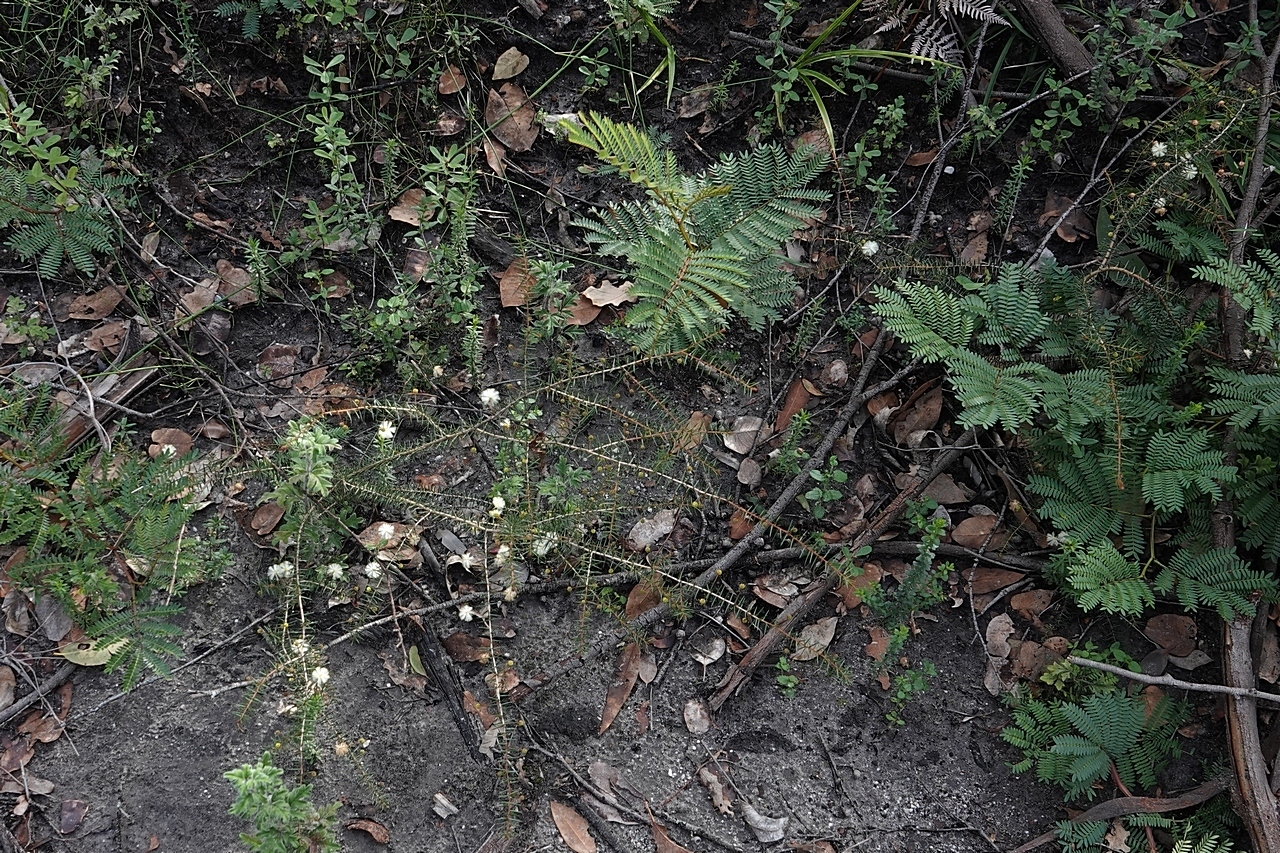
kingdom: Plantae
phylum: Tracheophyta
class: Magnoliopsida
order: Fabales
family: Fabaceae
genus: Acacia
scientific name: Acacia ulicifolia
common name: Juniper wattle
